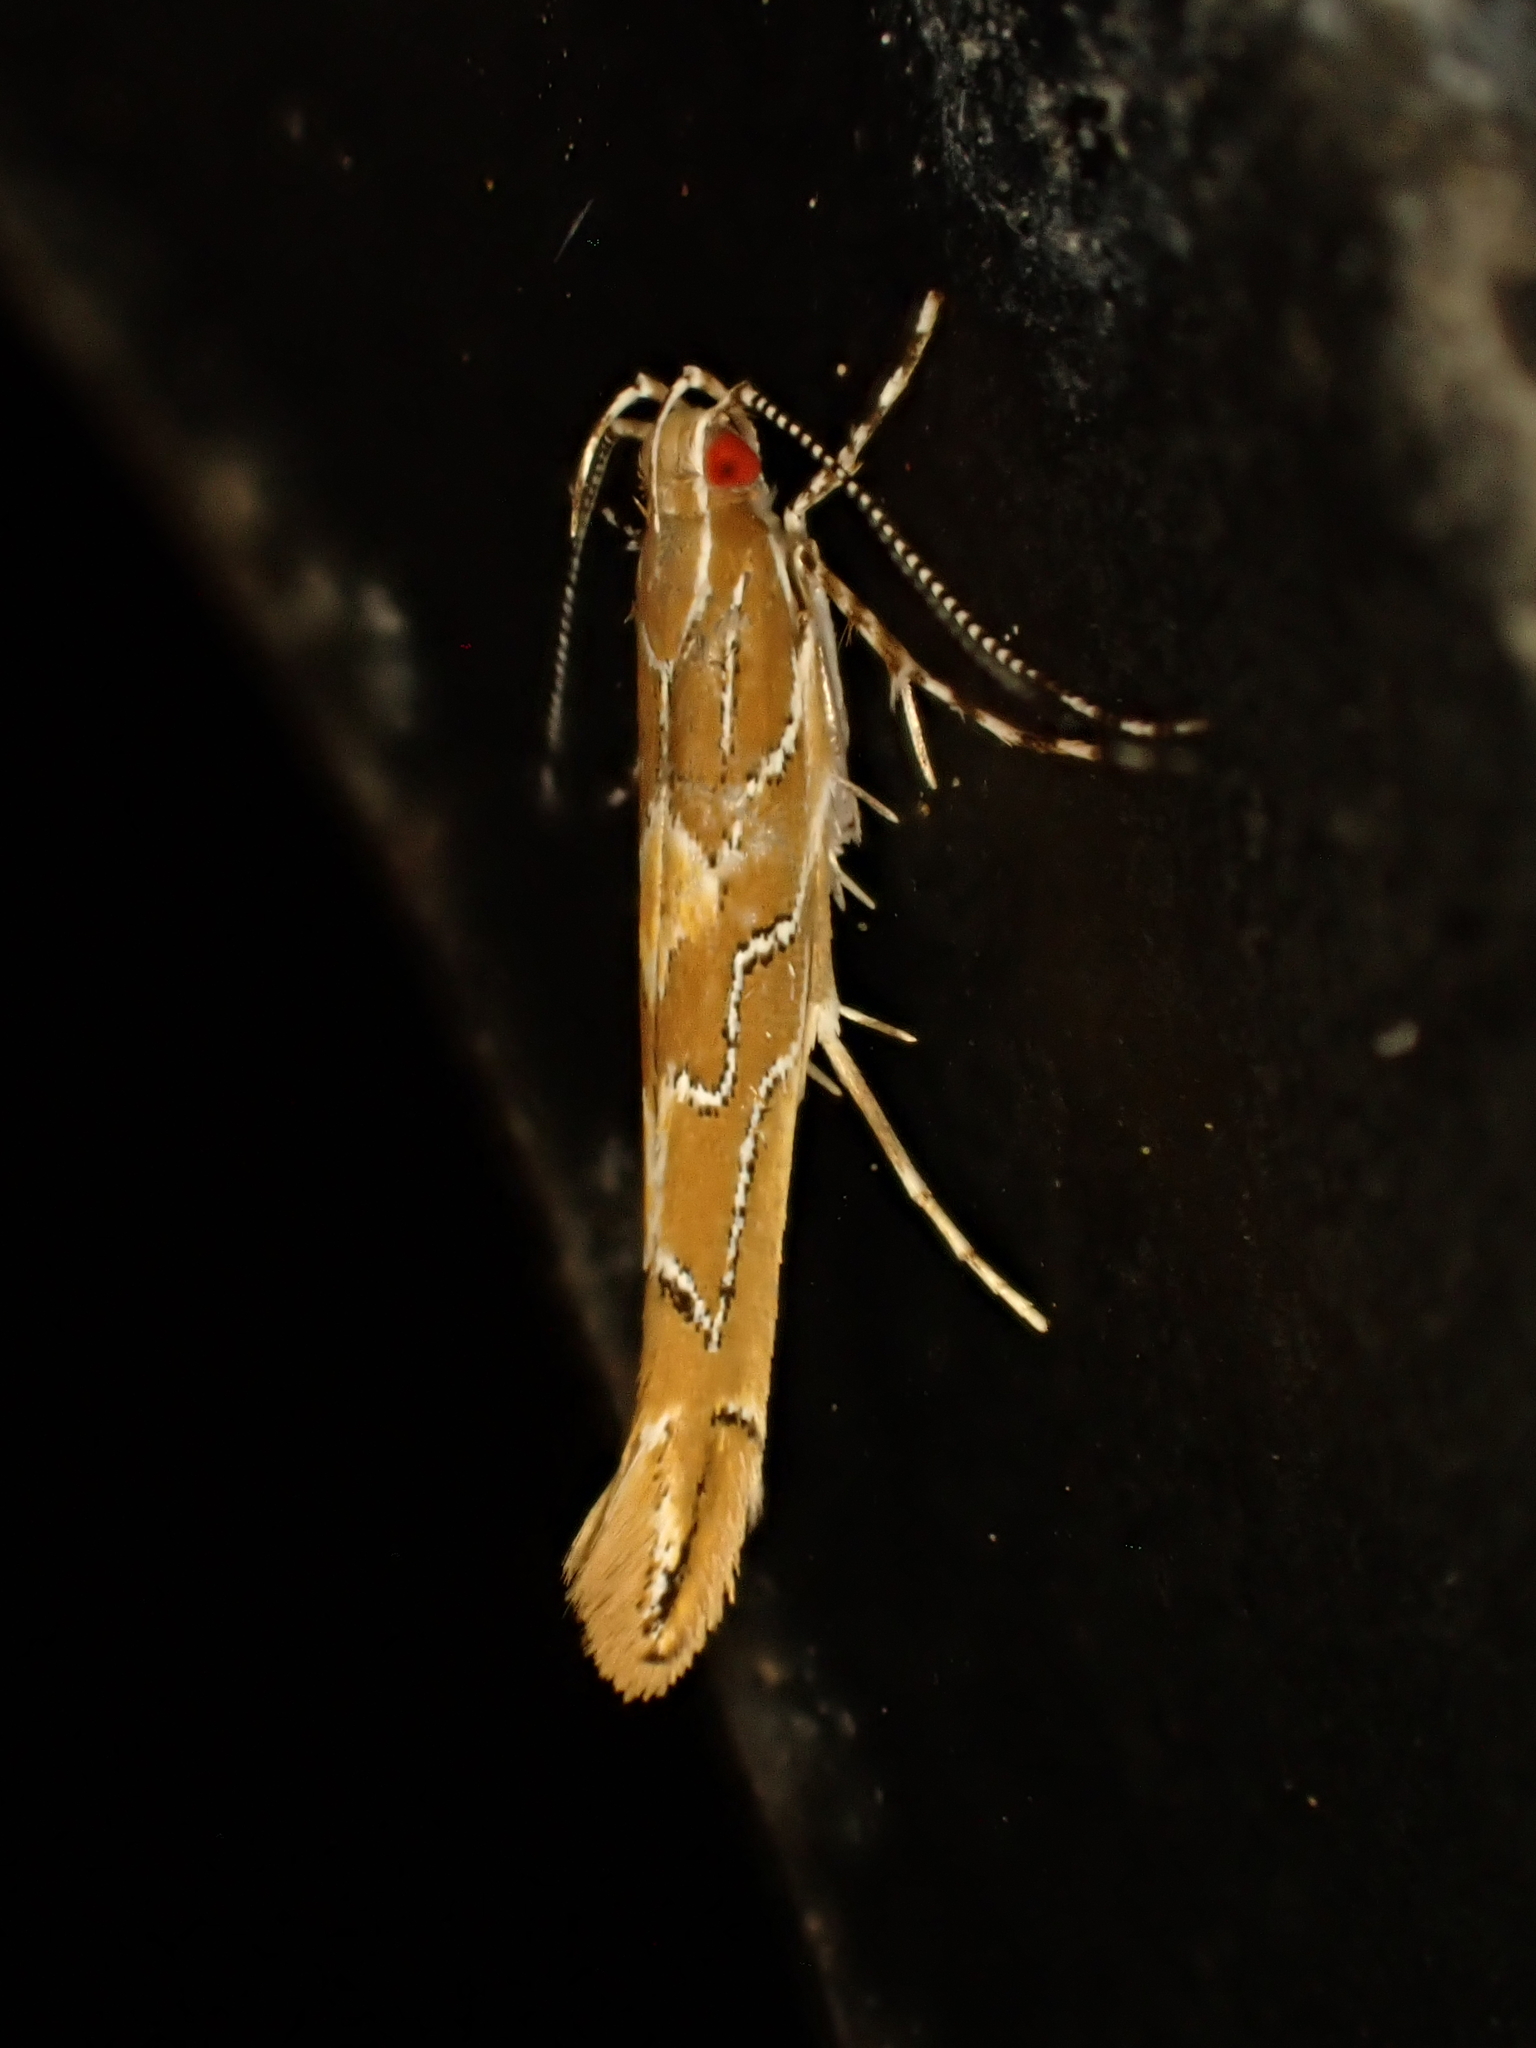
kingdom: Animalia
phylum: Arthropoda
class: Insecta
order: Lepidoptera
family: Cosmopterigidae
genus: Pyroderces
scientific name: Pyroderces apparitella
